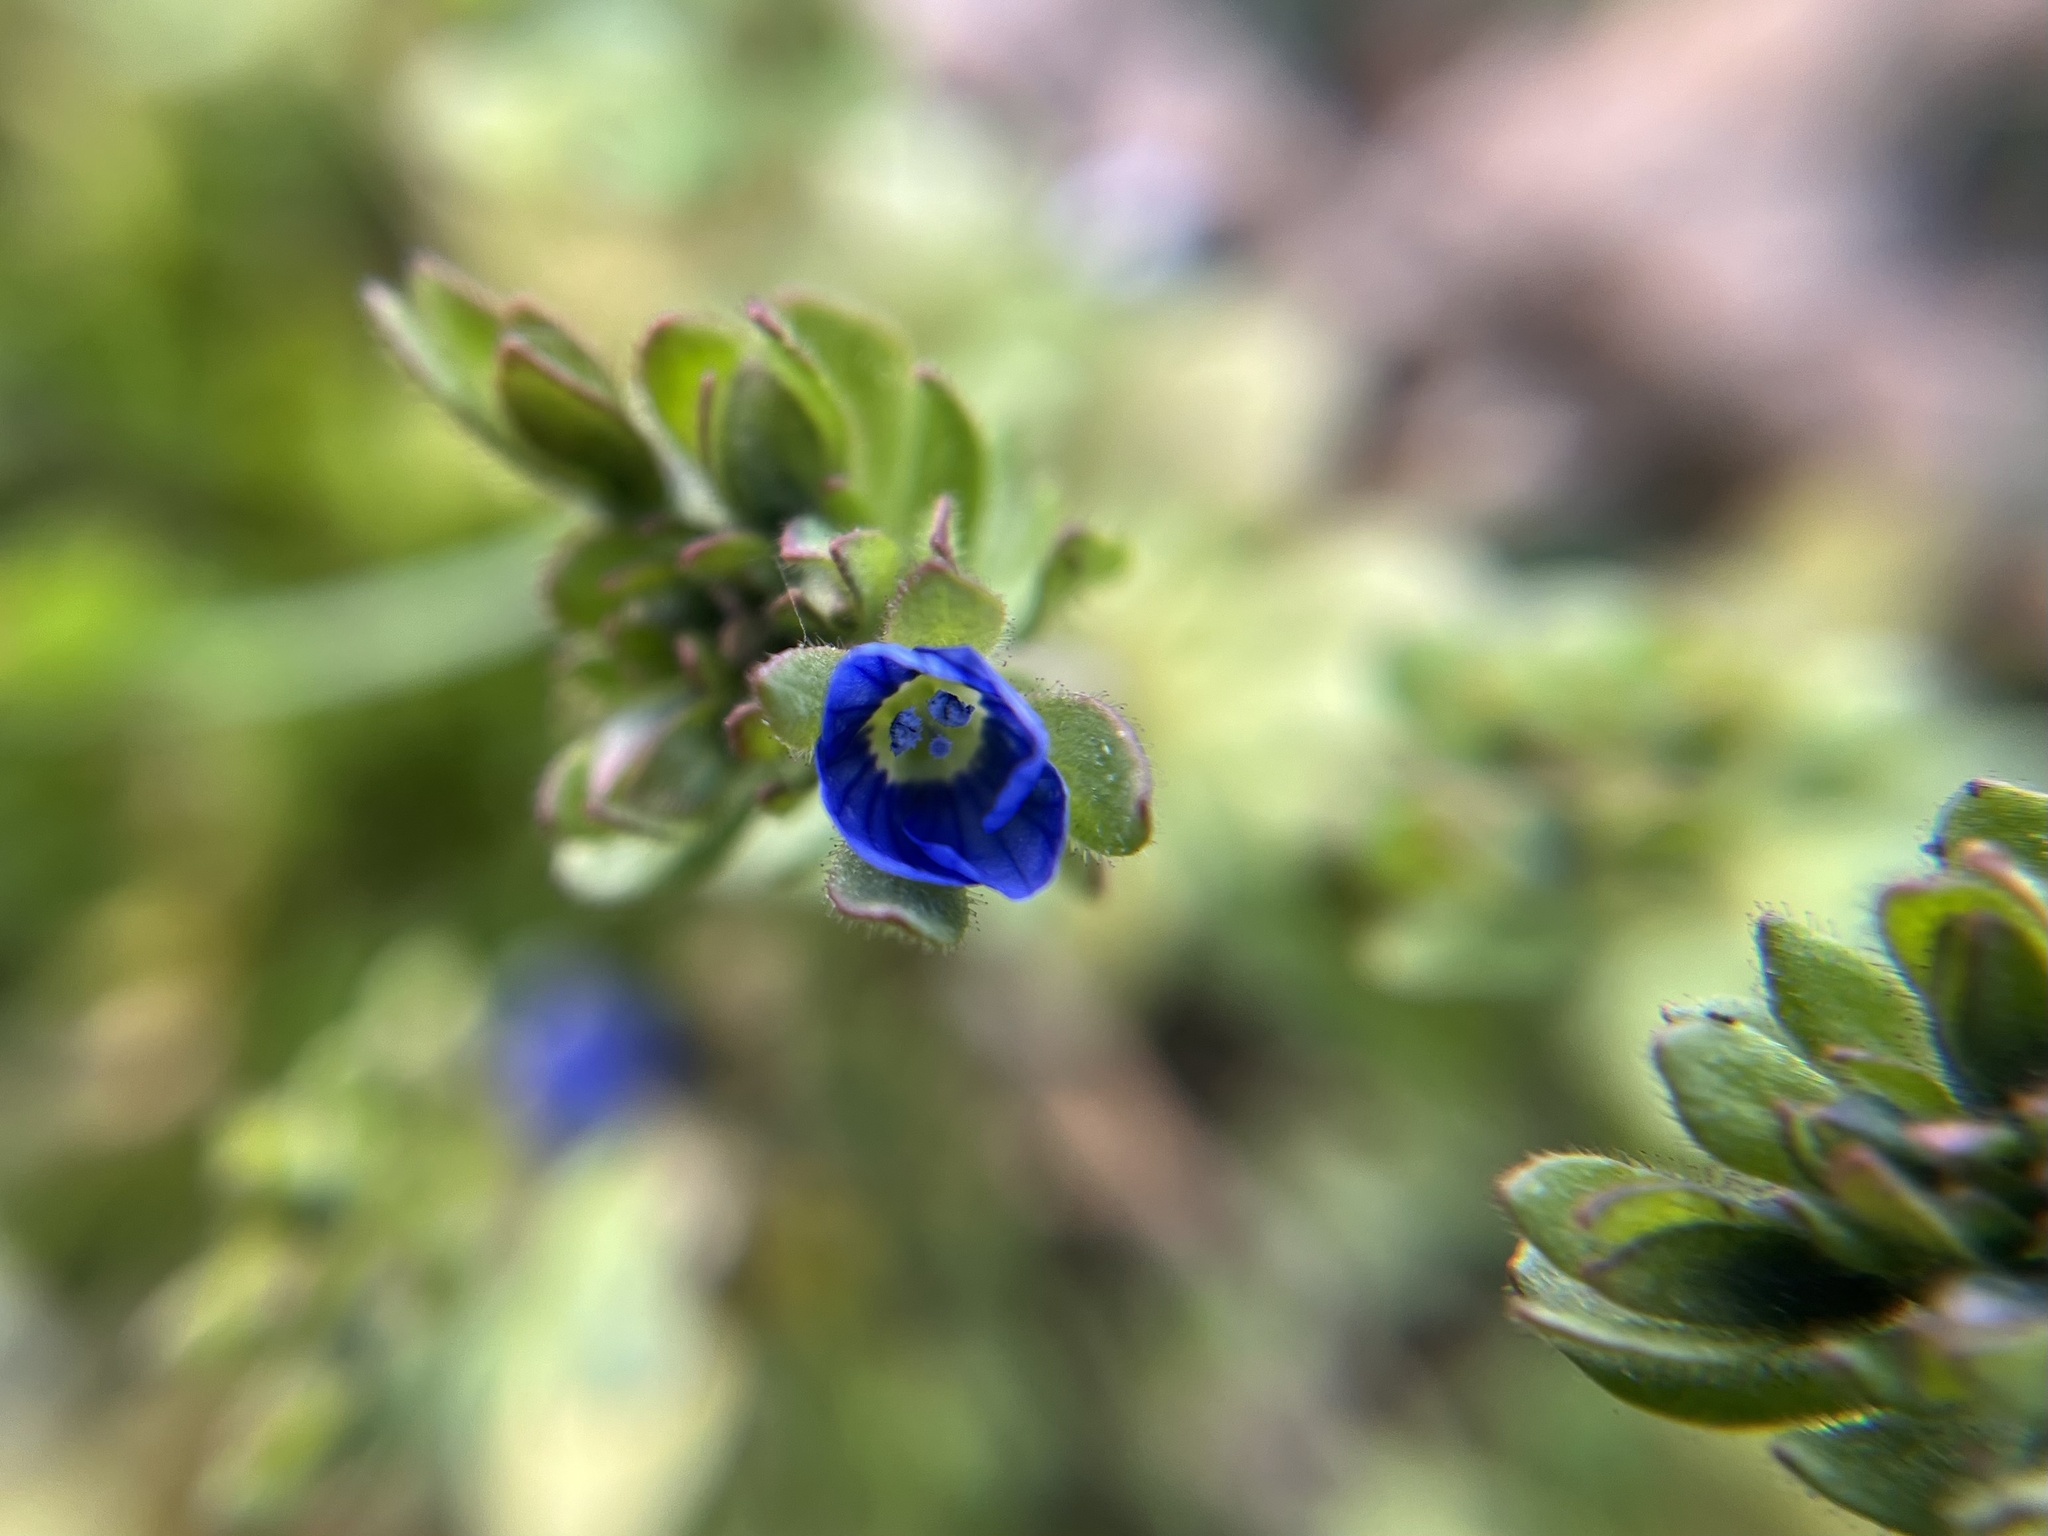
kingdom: Plantae
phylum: Tracheophyta
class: Magnoliopsida
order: Lamiales
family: Plantaginaceae
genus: Veronica
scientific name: Veronica triphyllos
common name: Fingered speedwell
